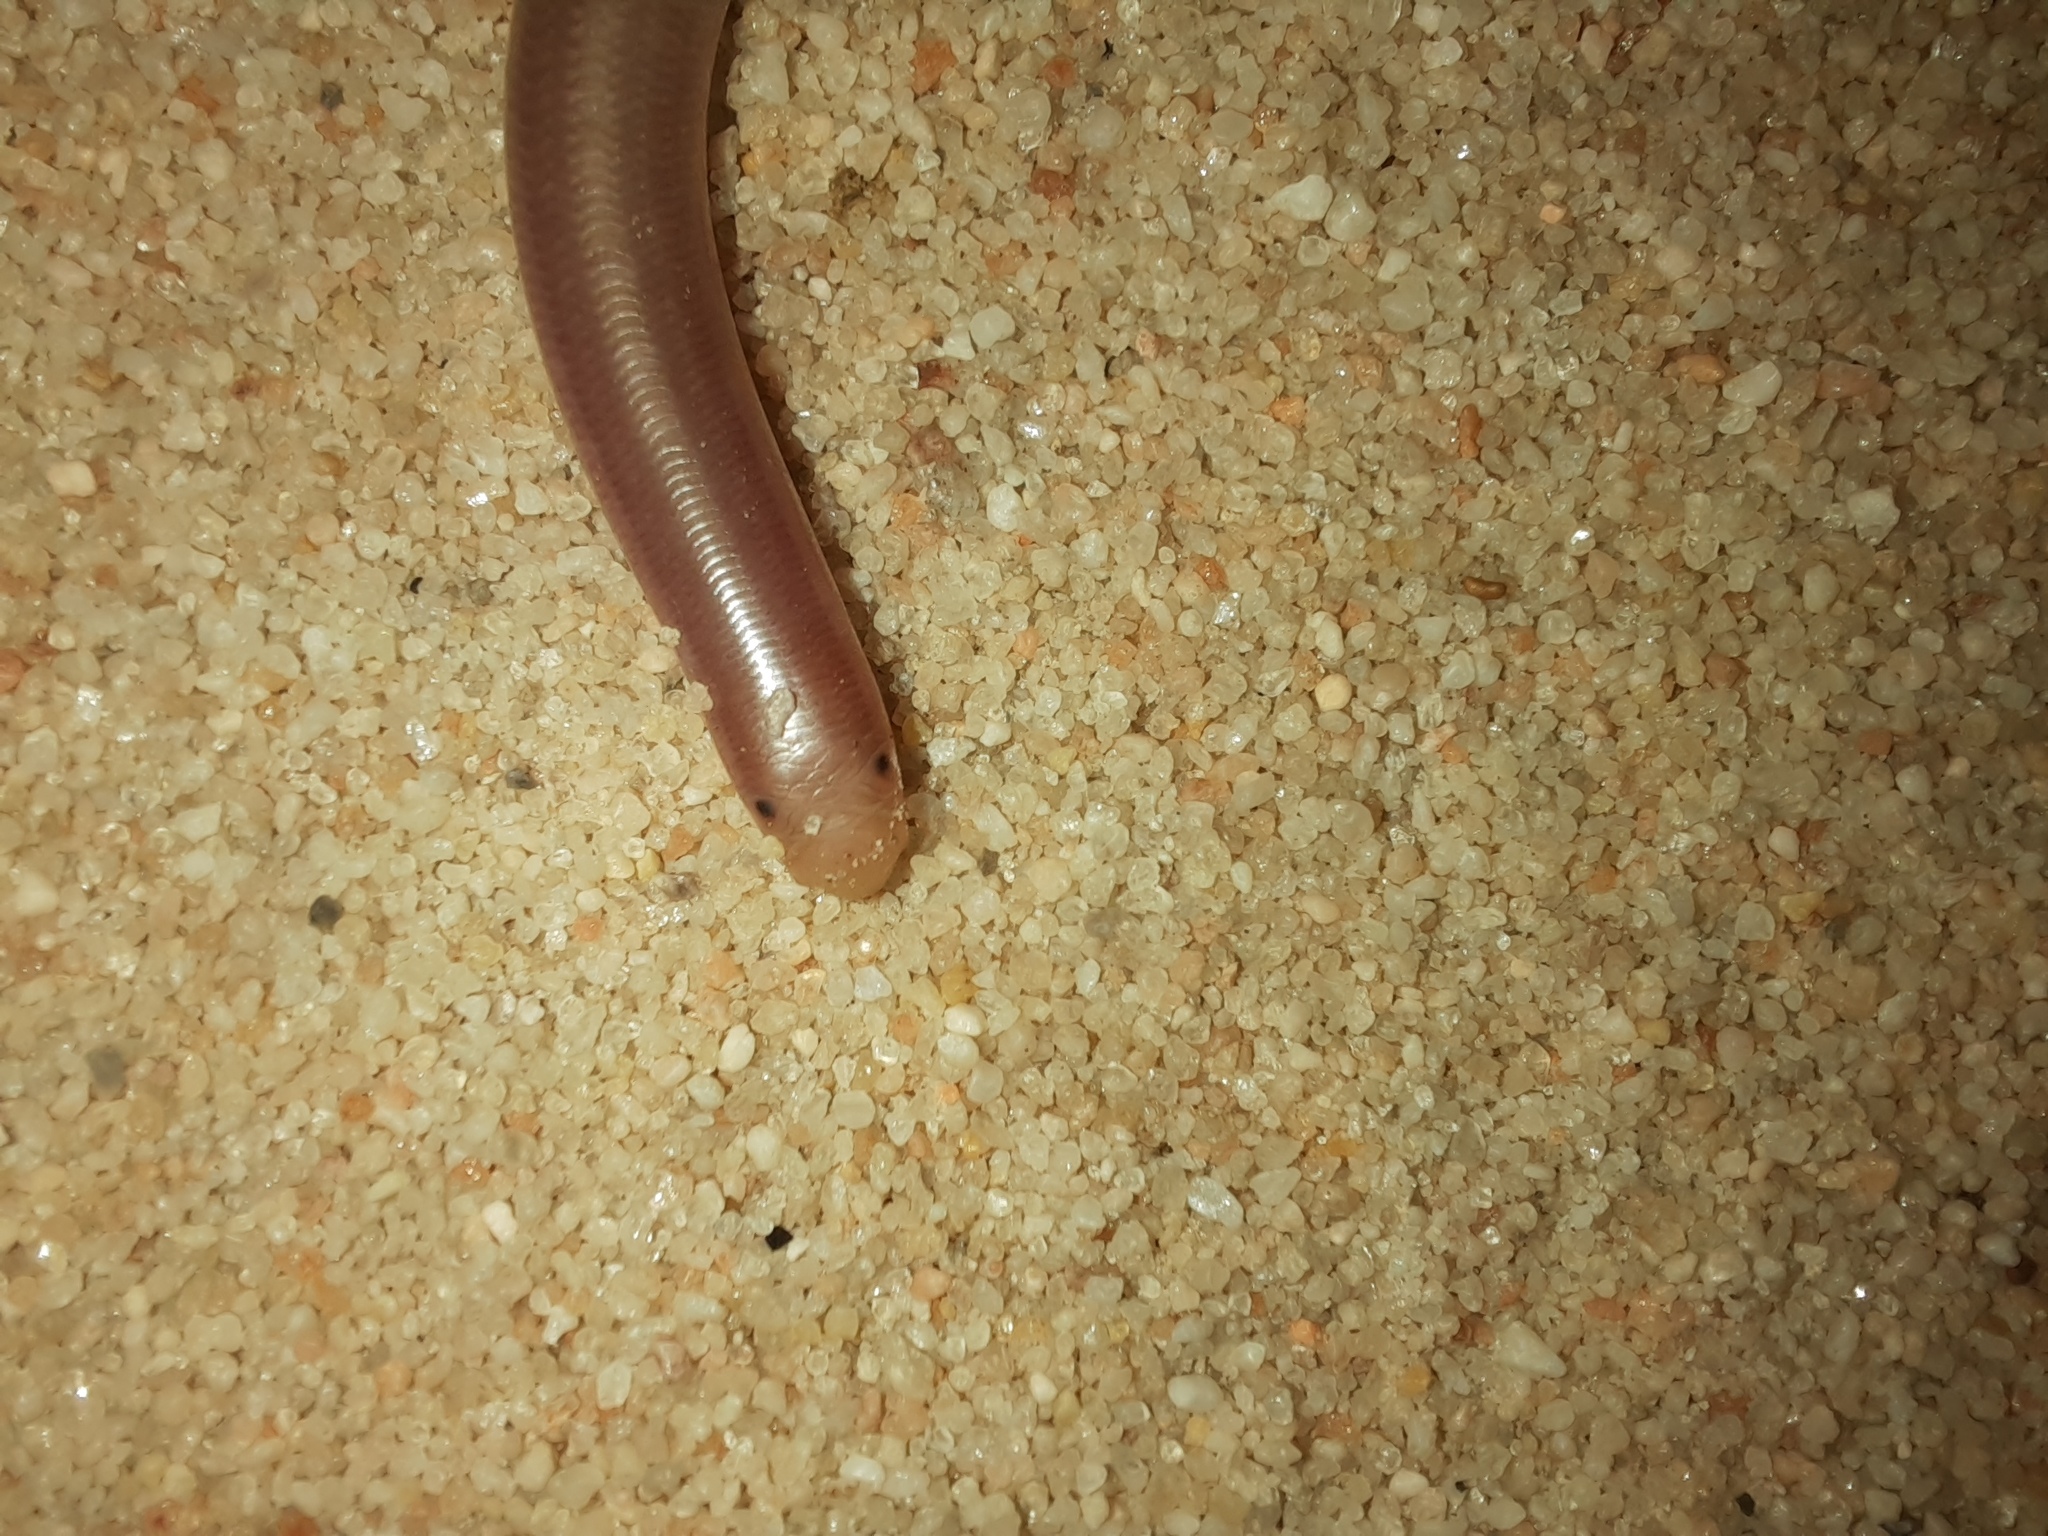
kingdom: Animalia
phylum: Chordata
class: Squamata
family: Typhlopidae
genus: Anilios
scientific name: Anilios bituberculatus
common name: Prong-snouted blind snake
